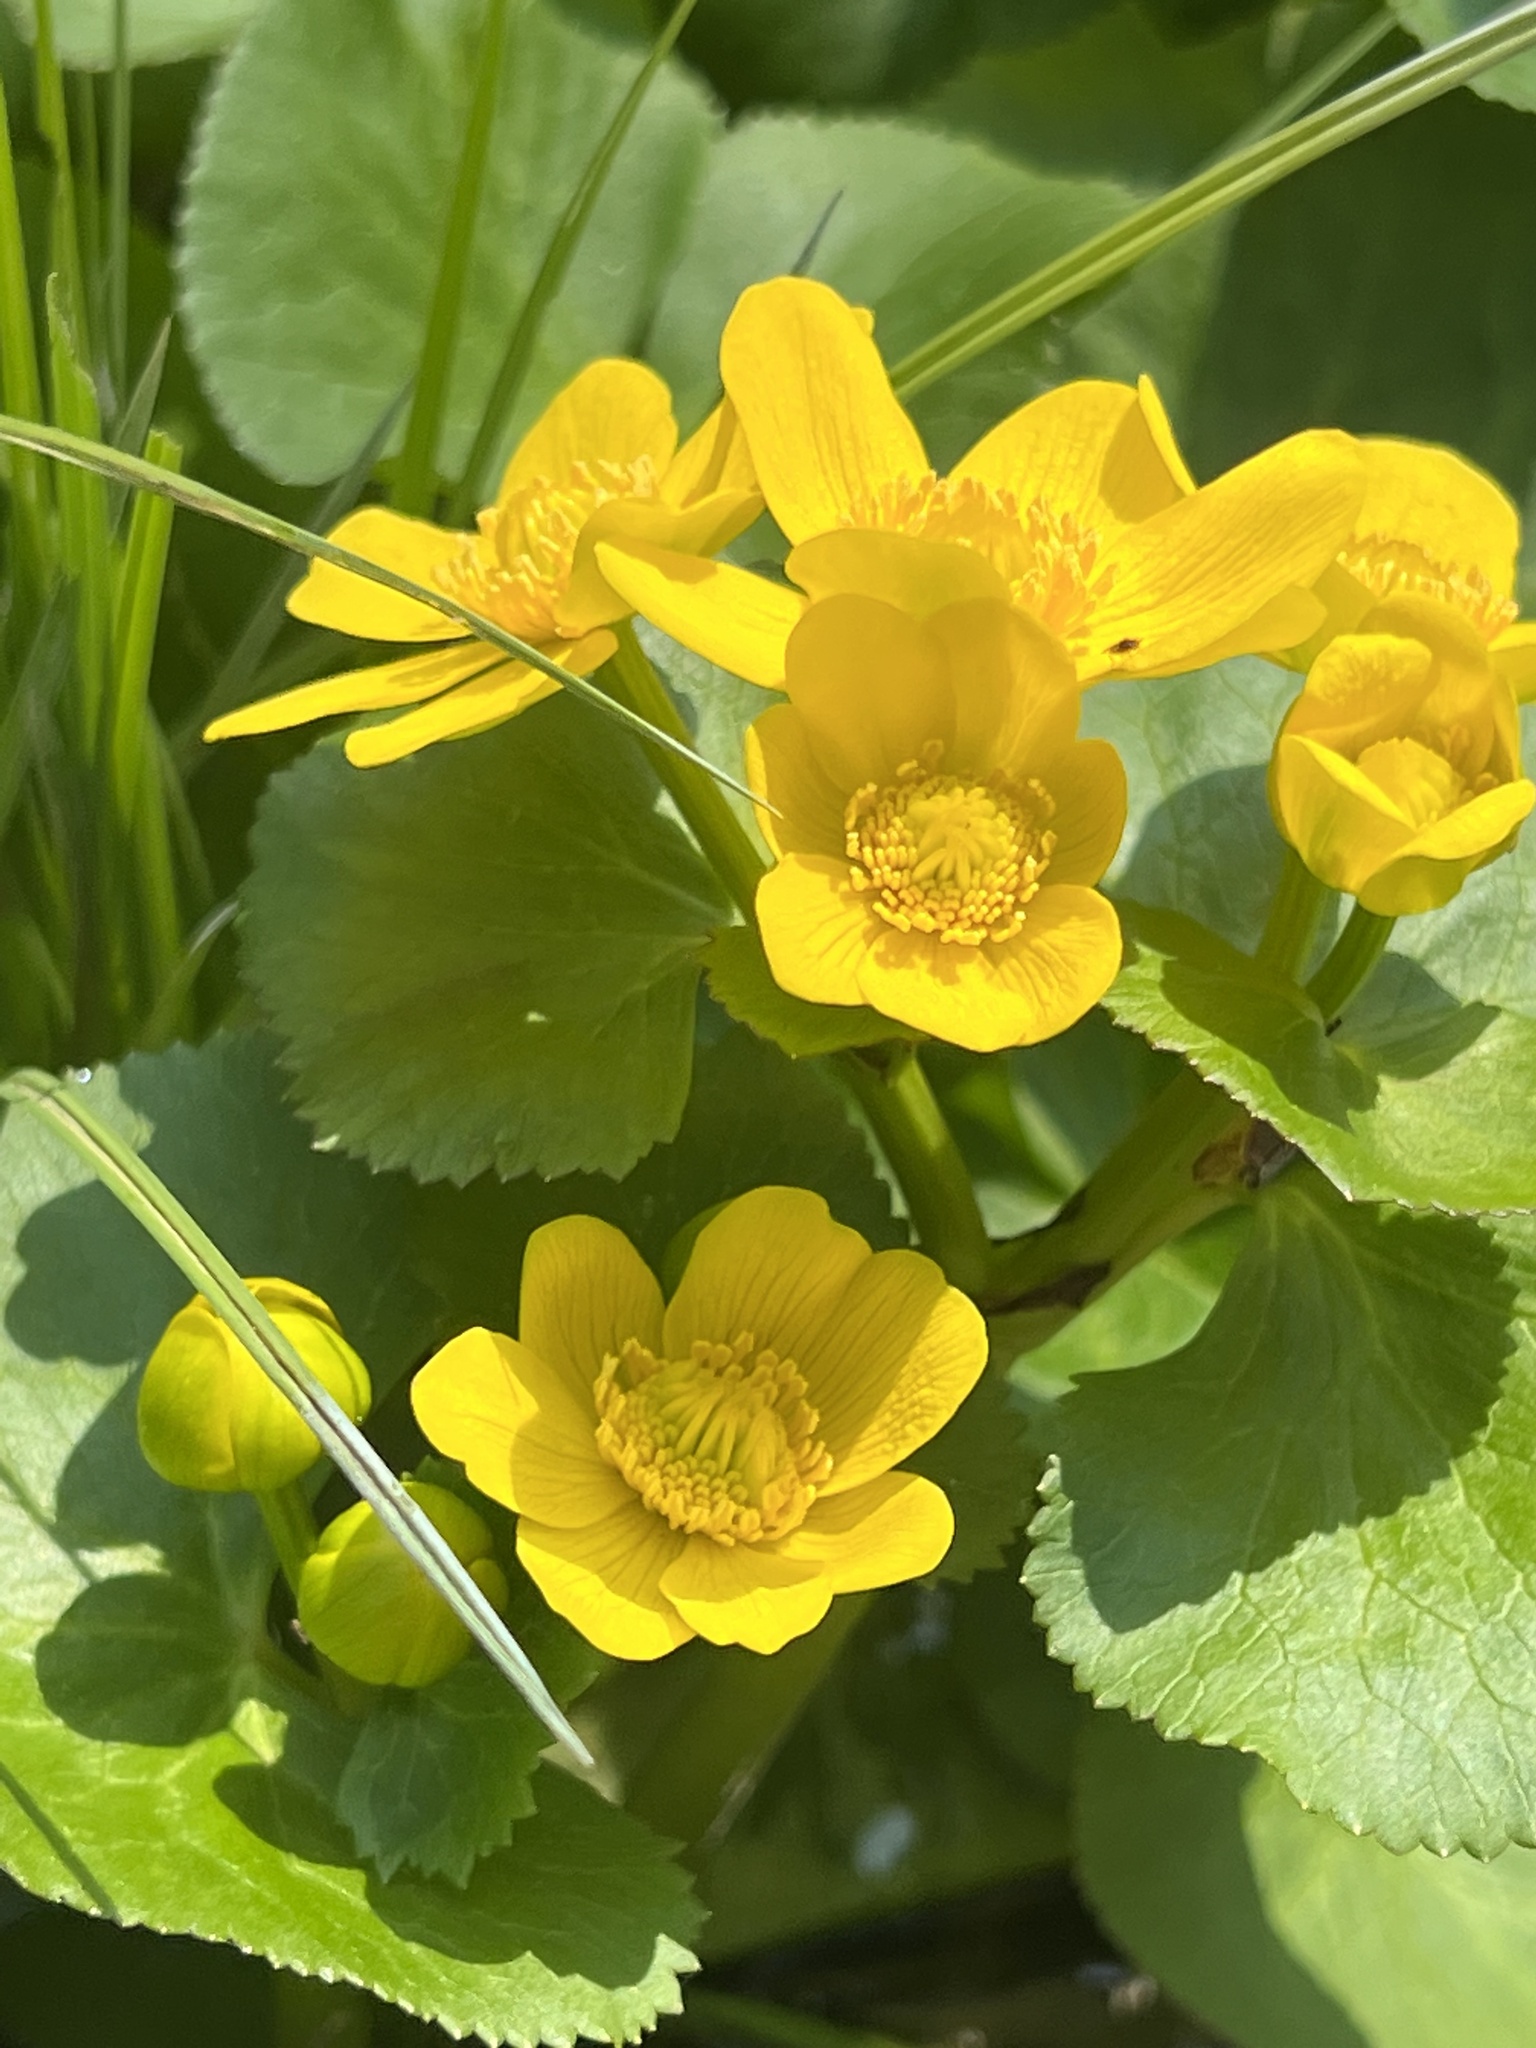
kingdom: Plantae
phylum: Tracheophyta
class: Magnoliopsida
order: Ranunculales
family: Ranunculaceae
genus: Caltha
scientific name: Caltha palustris
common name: Marsh marigold
